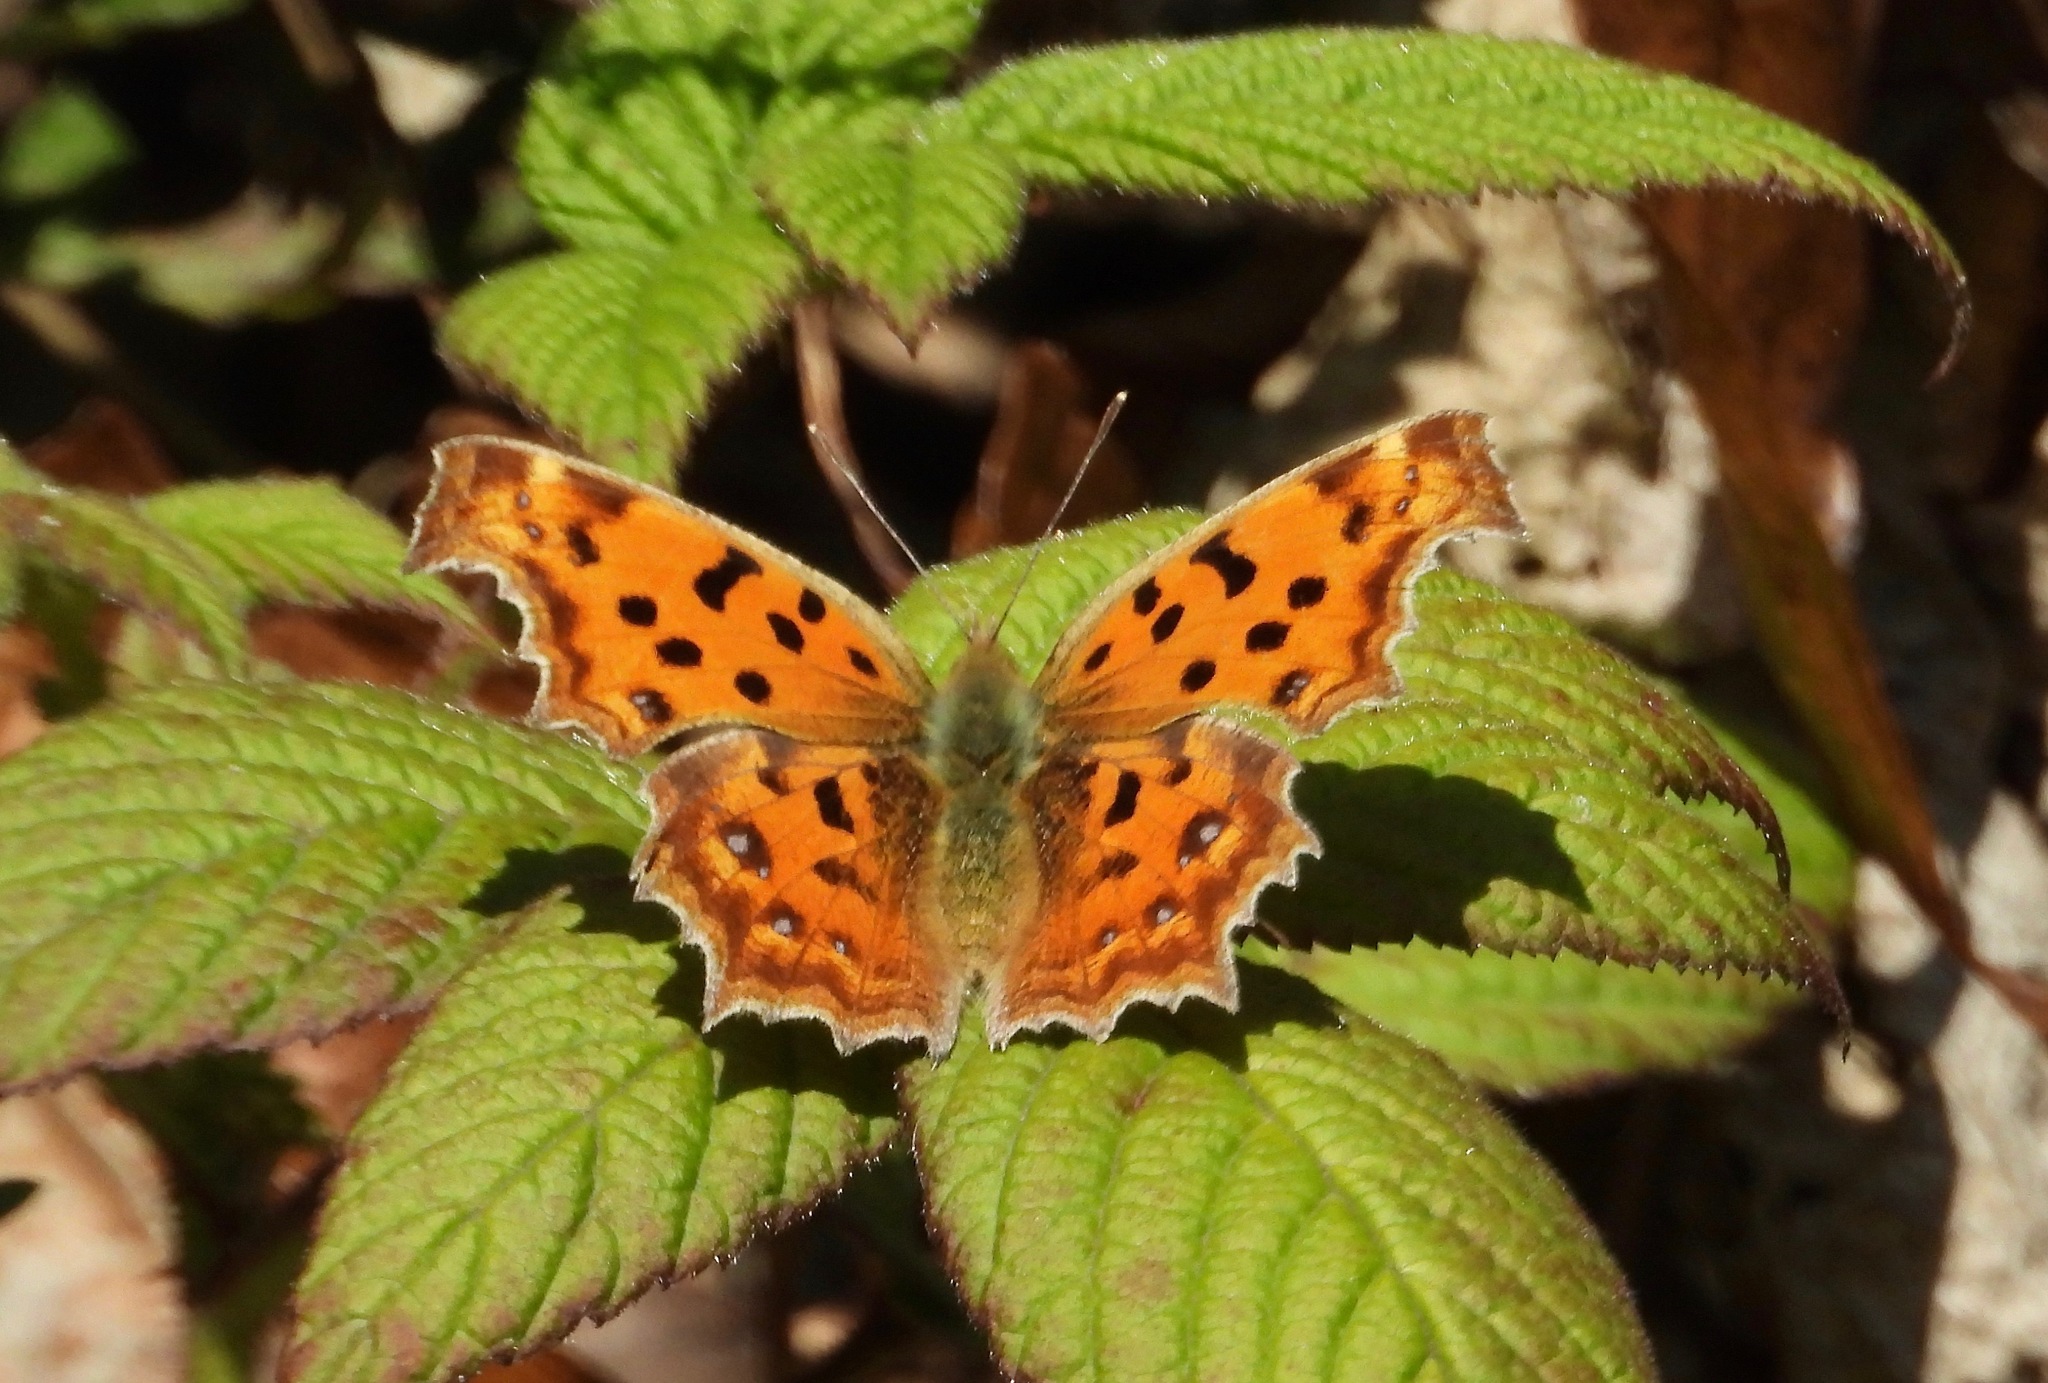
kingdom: Animalia
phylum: Arthropoda
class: Insecta
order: Lepidoptera
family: Nymphalidae
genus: Polygonia
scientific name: Polygonia c-aureum
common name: Asian comma
